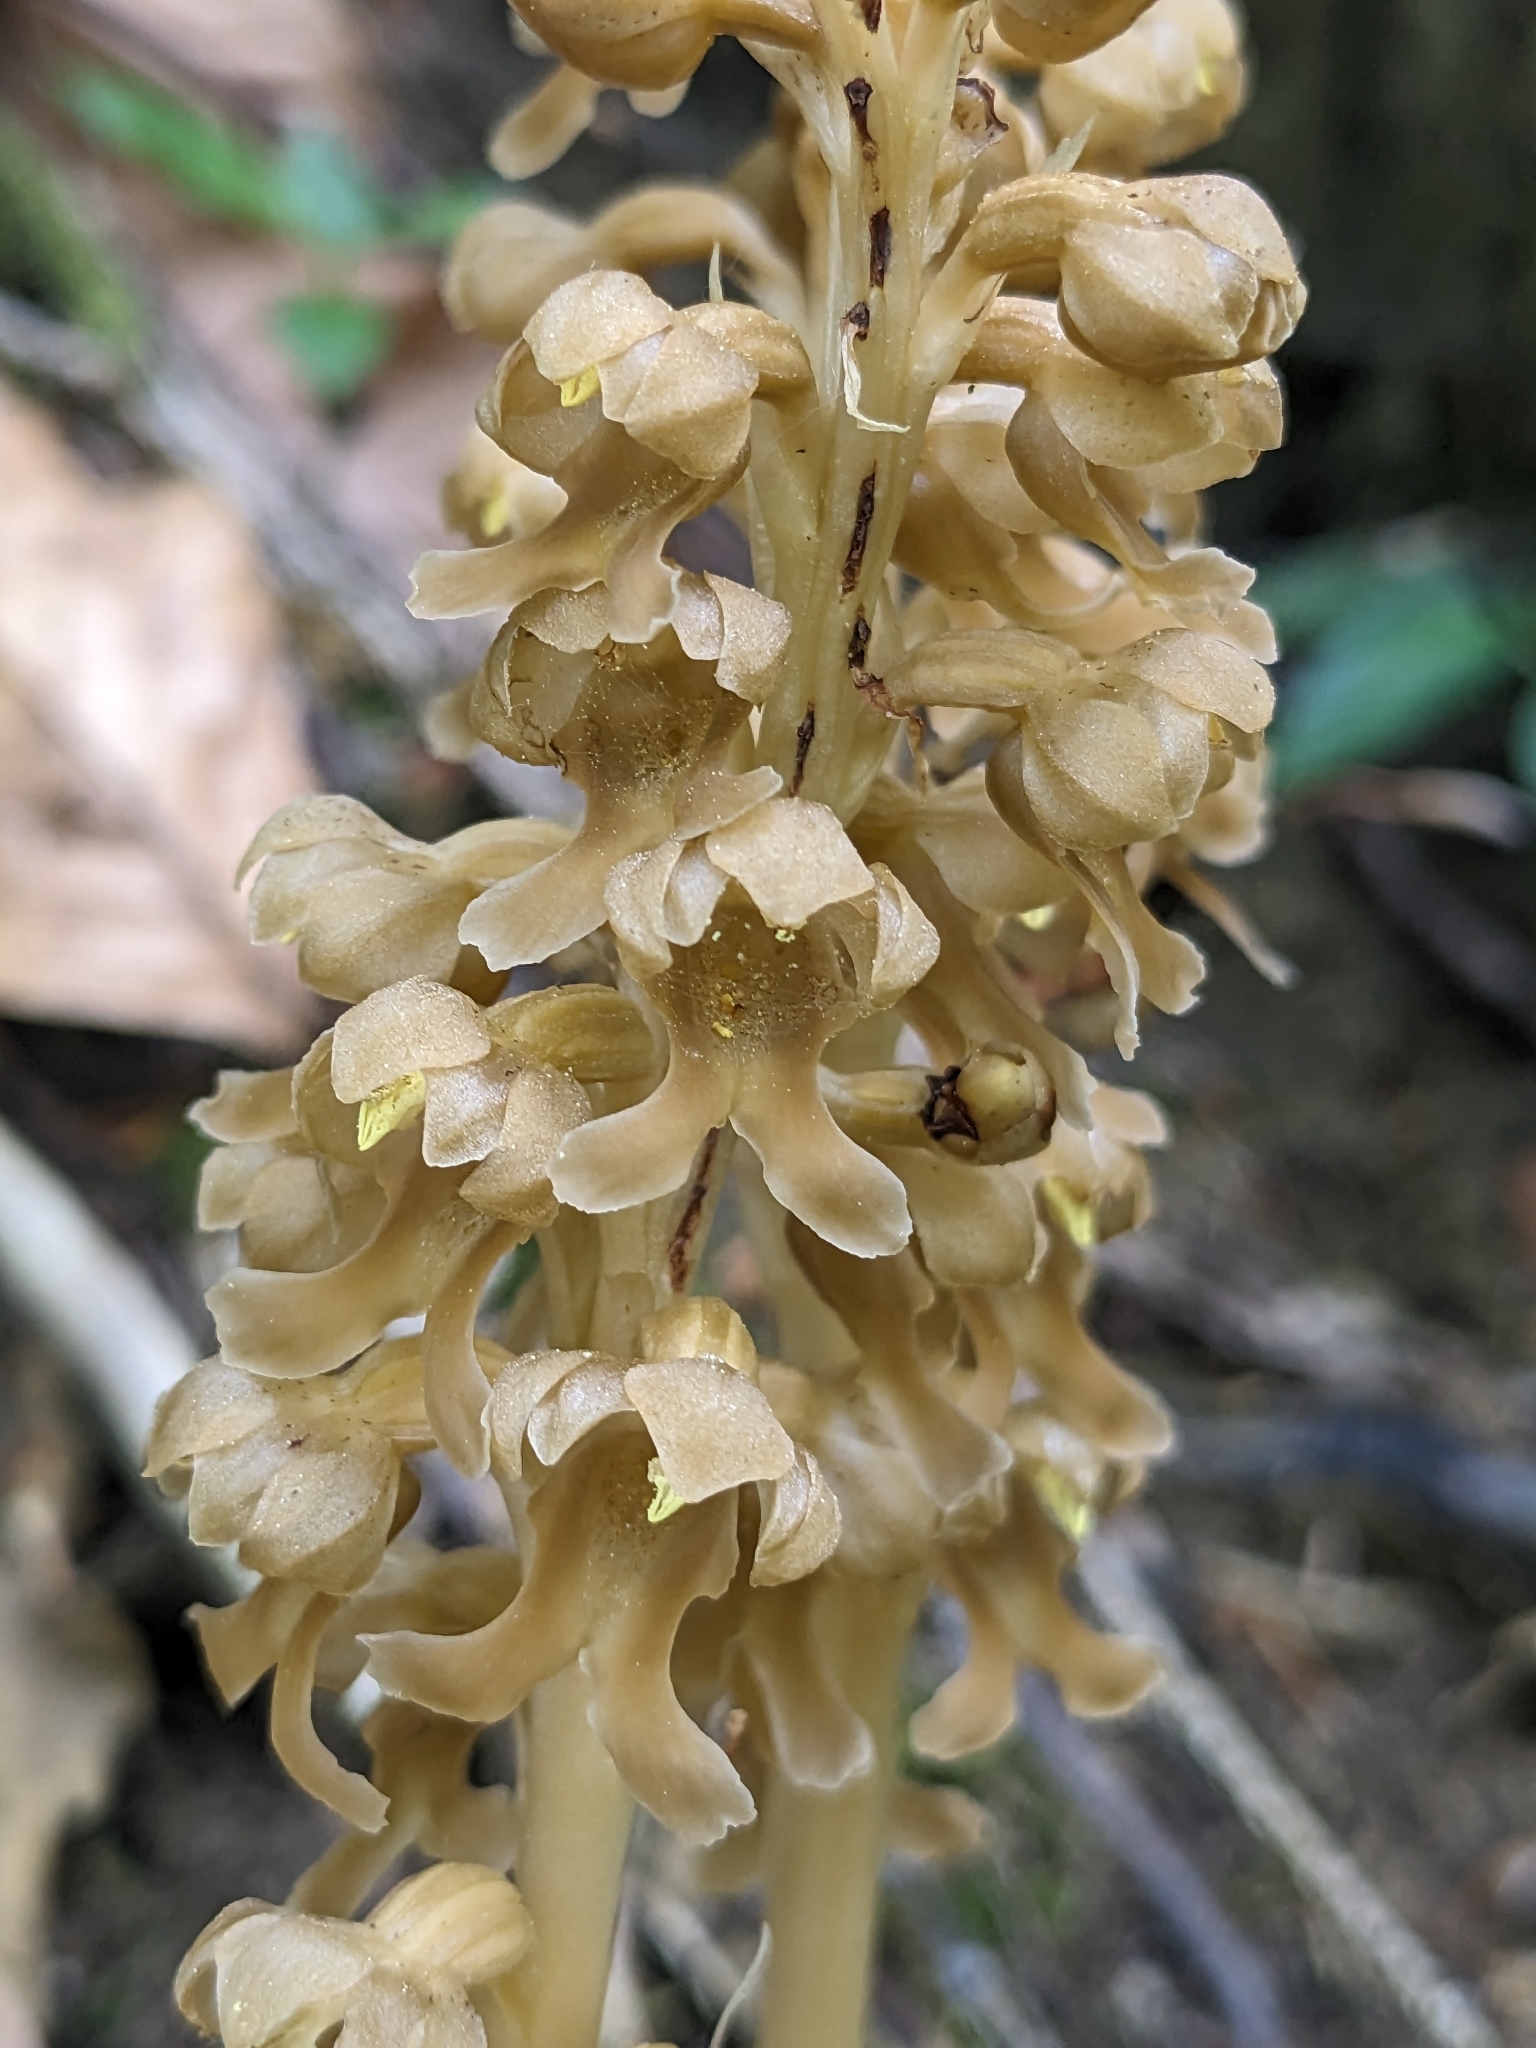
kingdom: Plantae
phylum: Tracheophyta
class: Liliopsida
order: Asparagales
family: Orchidaceae
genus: Neottia
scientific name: Neottia nidus-avis
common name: Bird's-nest orchid
